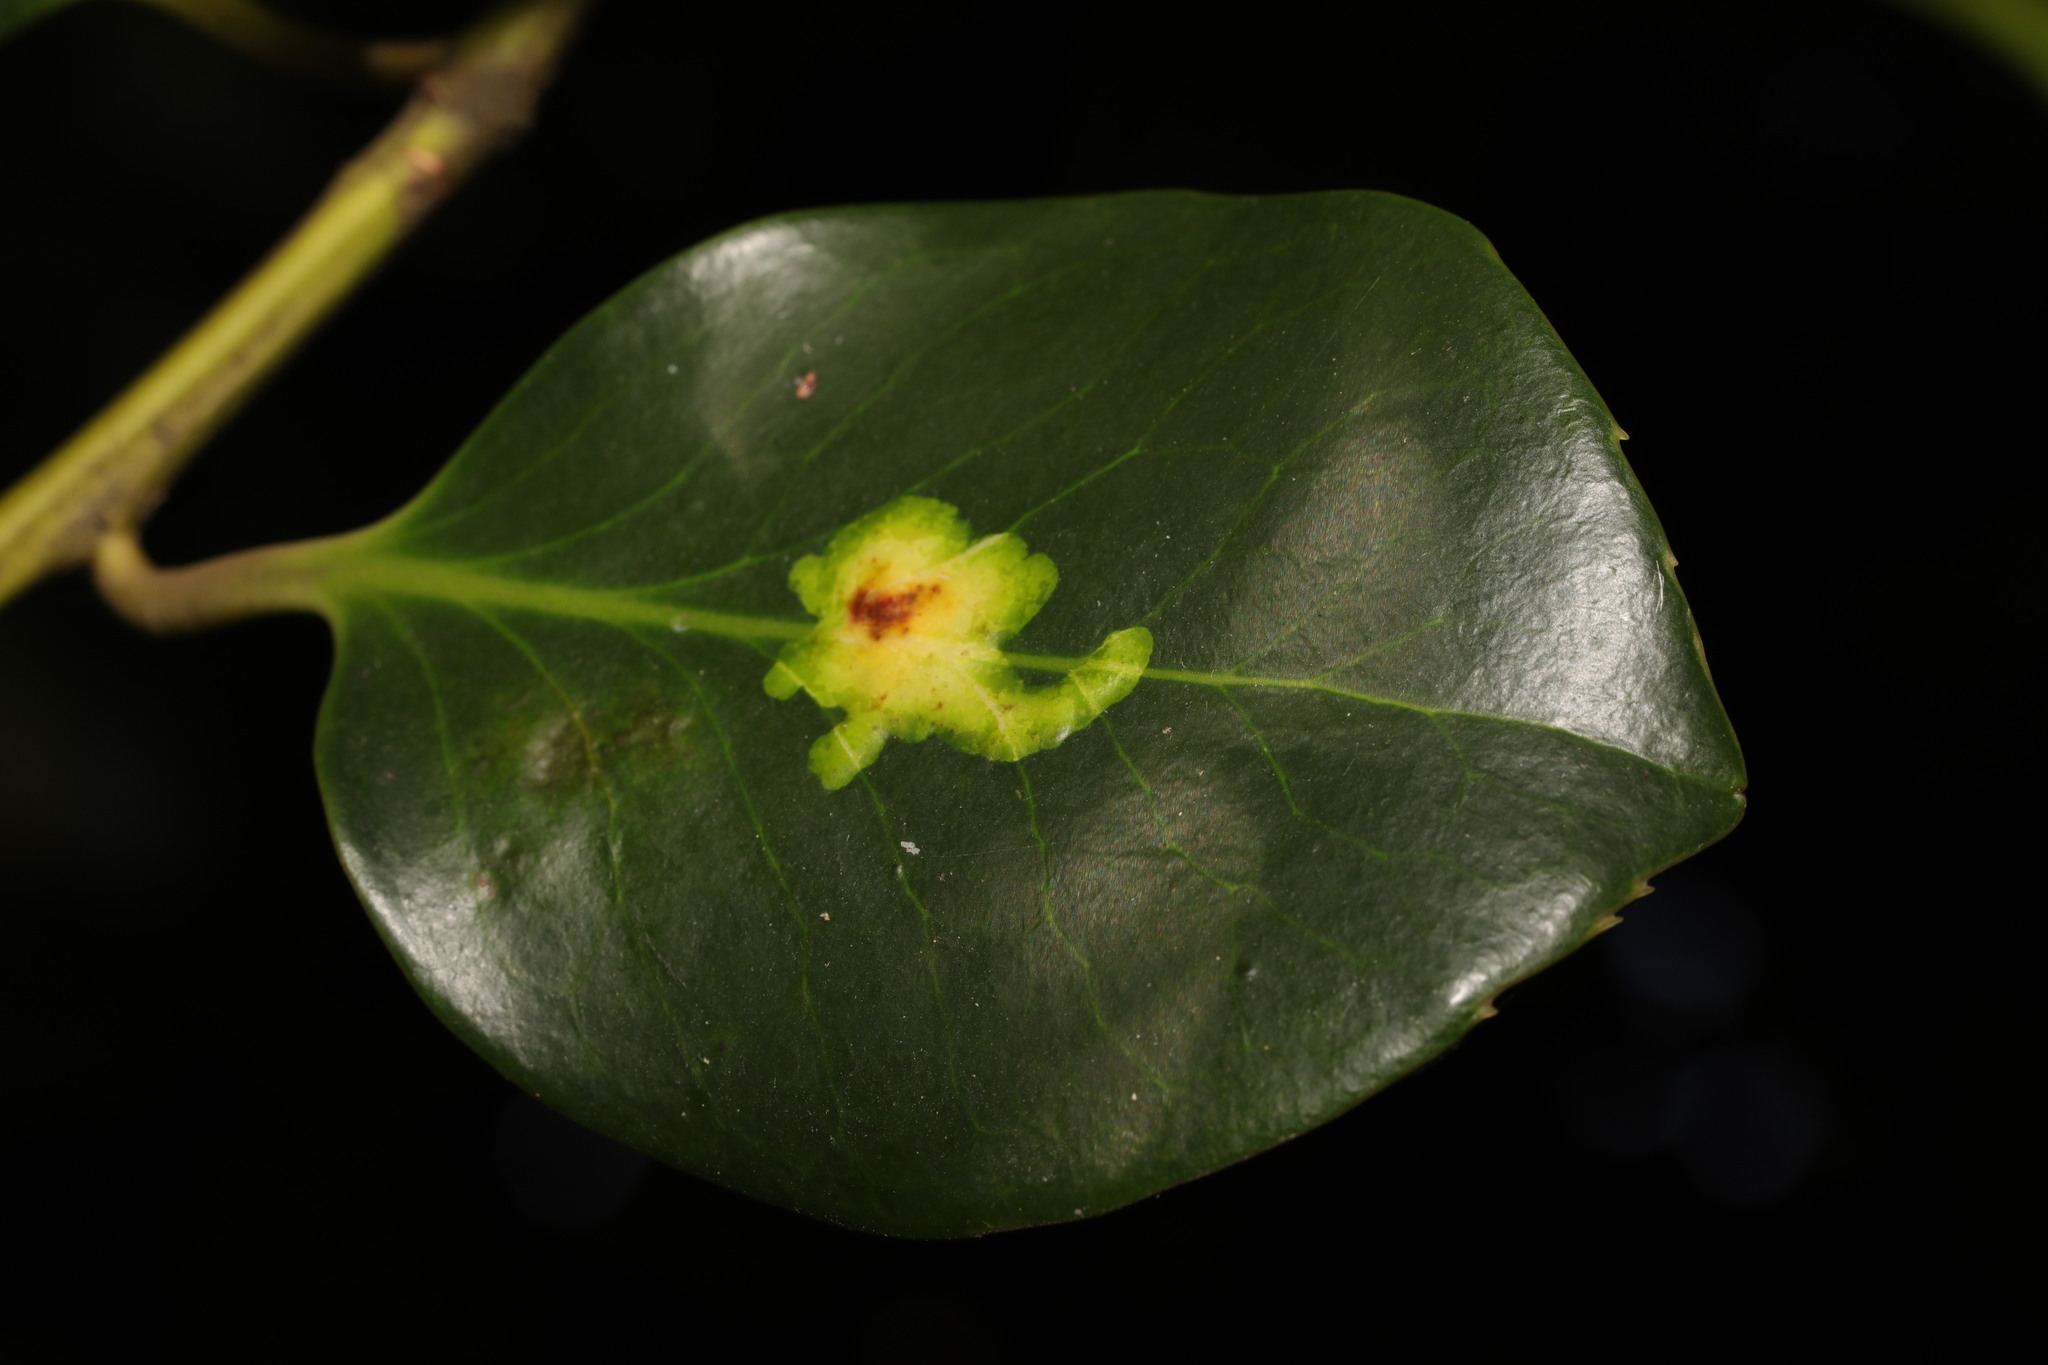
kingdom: Animalia
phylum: Arthropoda
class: Insecta
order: Diptera
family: Agromyzidae
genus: Phytomyza
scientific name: Phytomyza ilicis
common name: Holly leafminer
